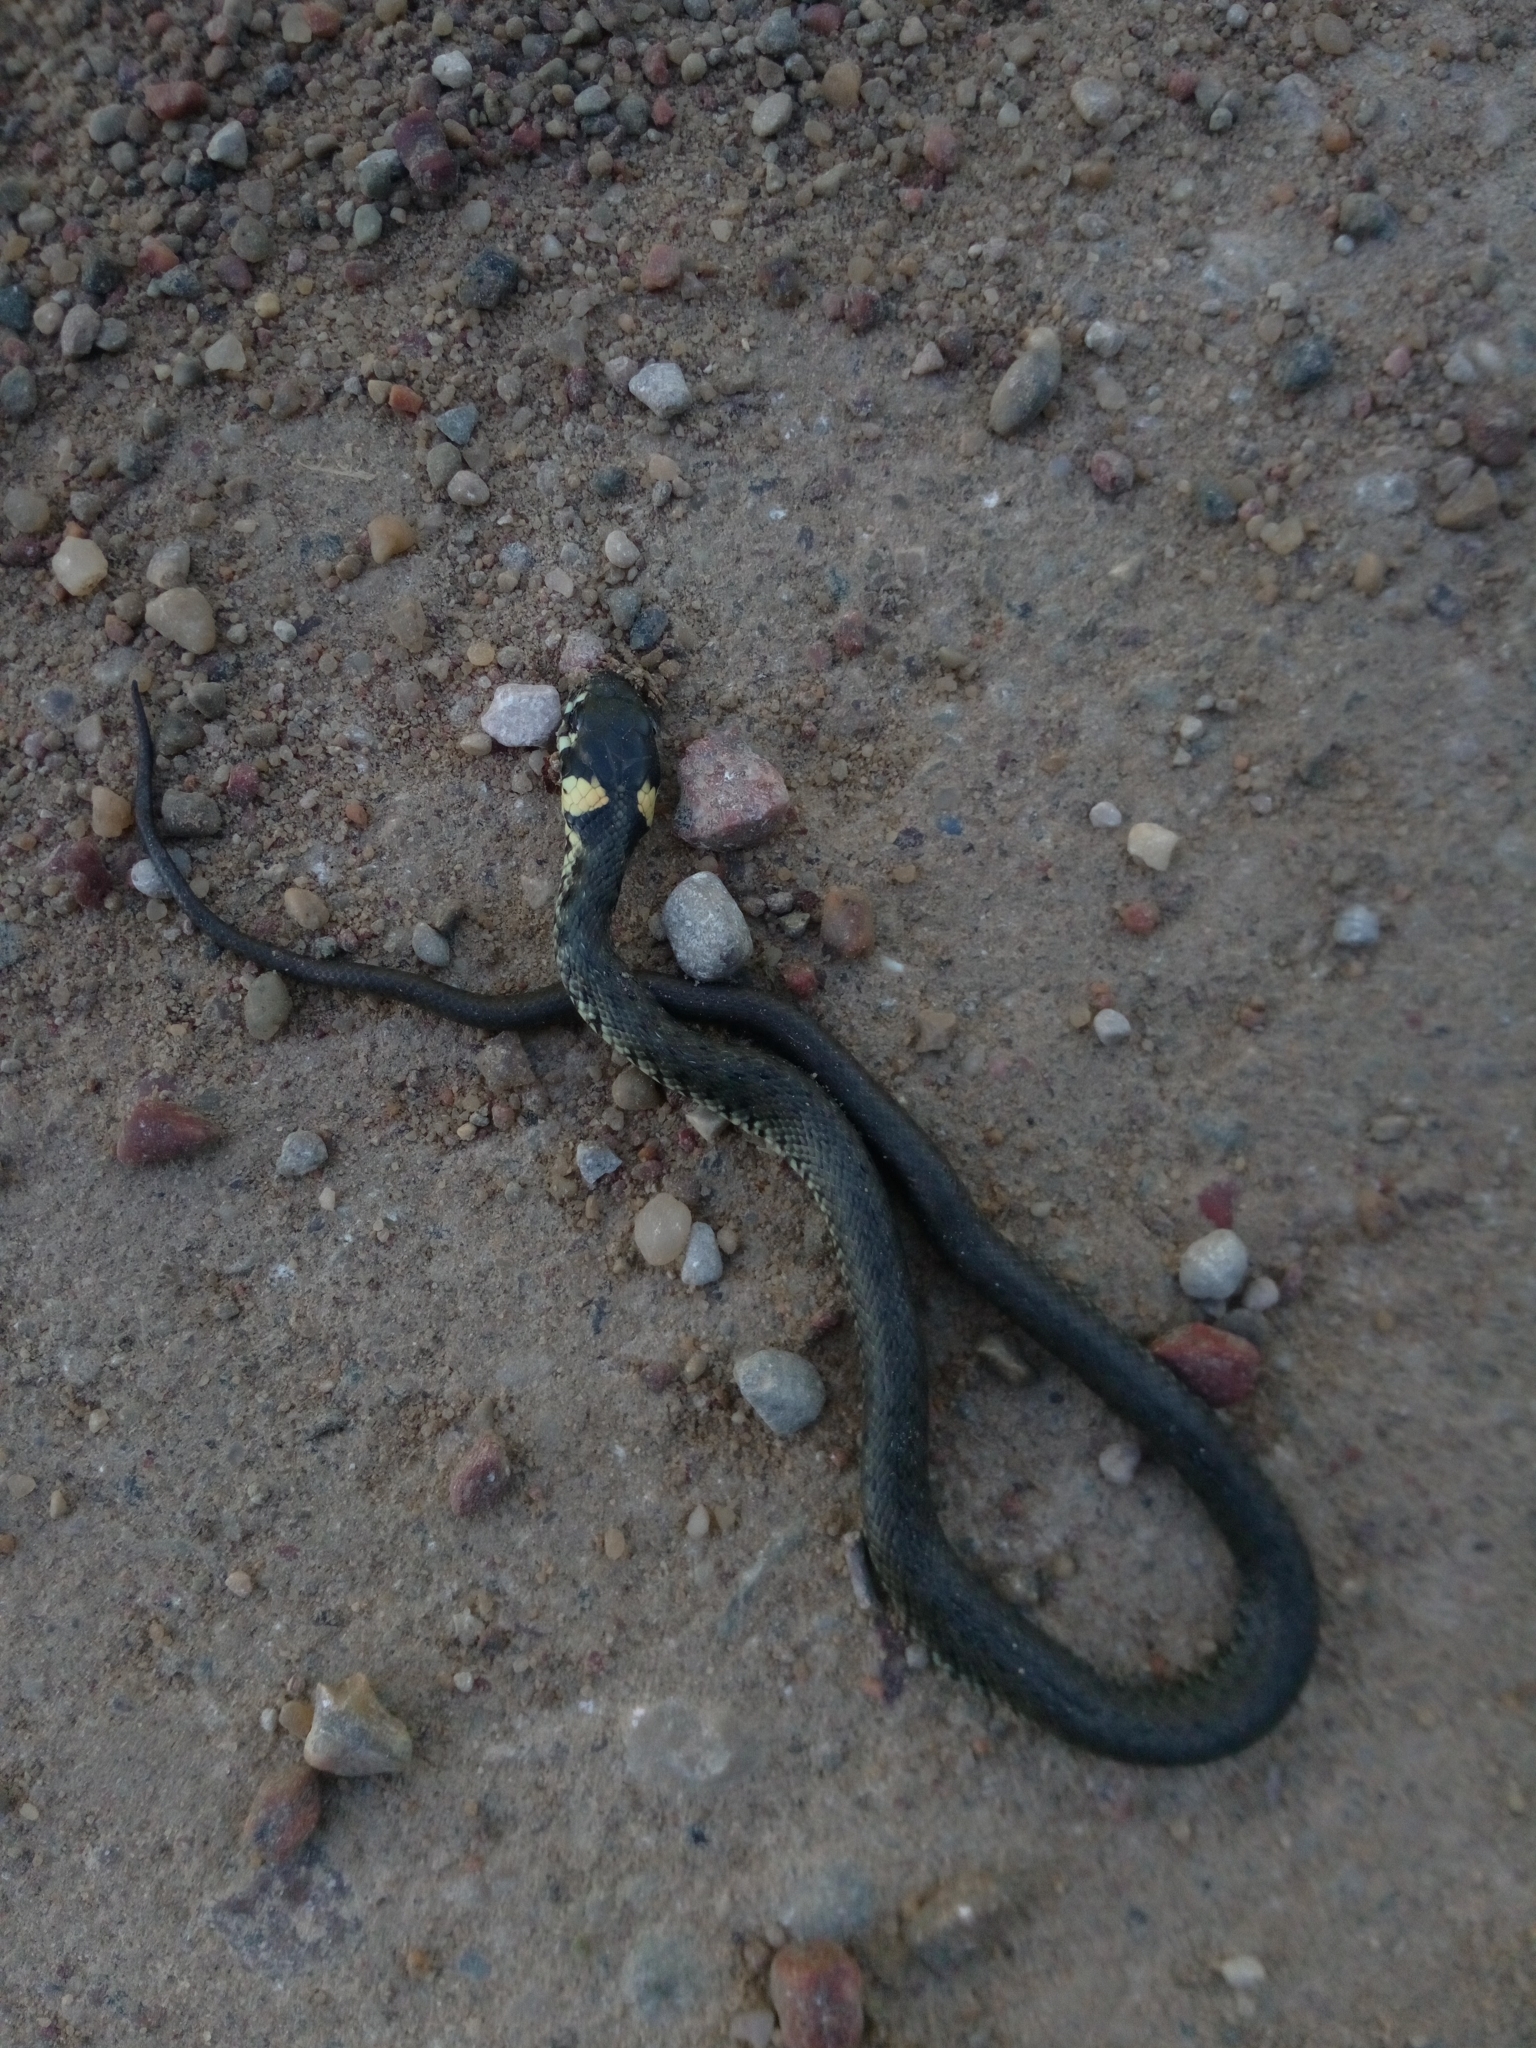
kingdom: Animalia
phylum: Chordata
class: Squamata
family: Colubridae
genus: Natrix
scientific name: Natrix natrix
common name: Grass snake
